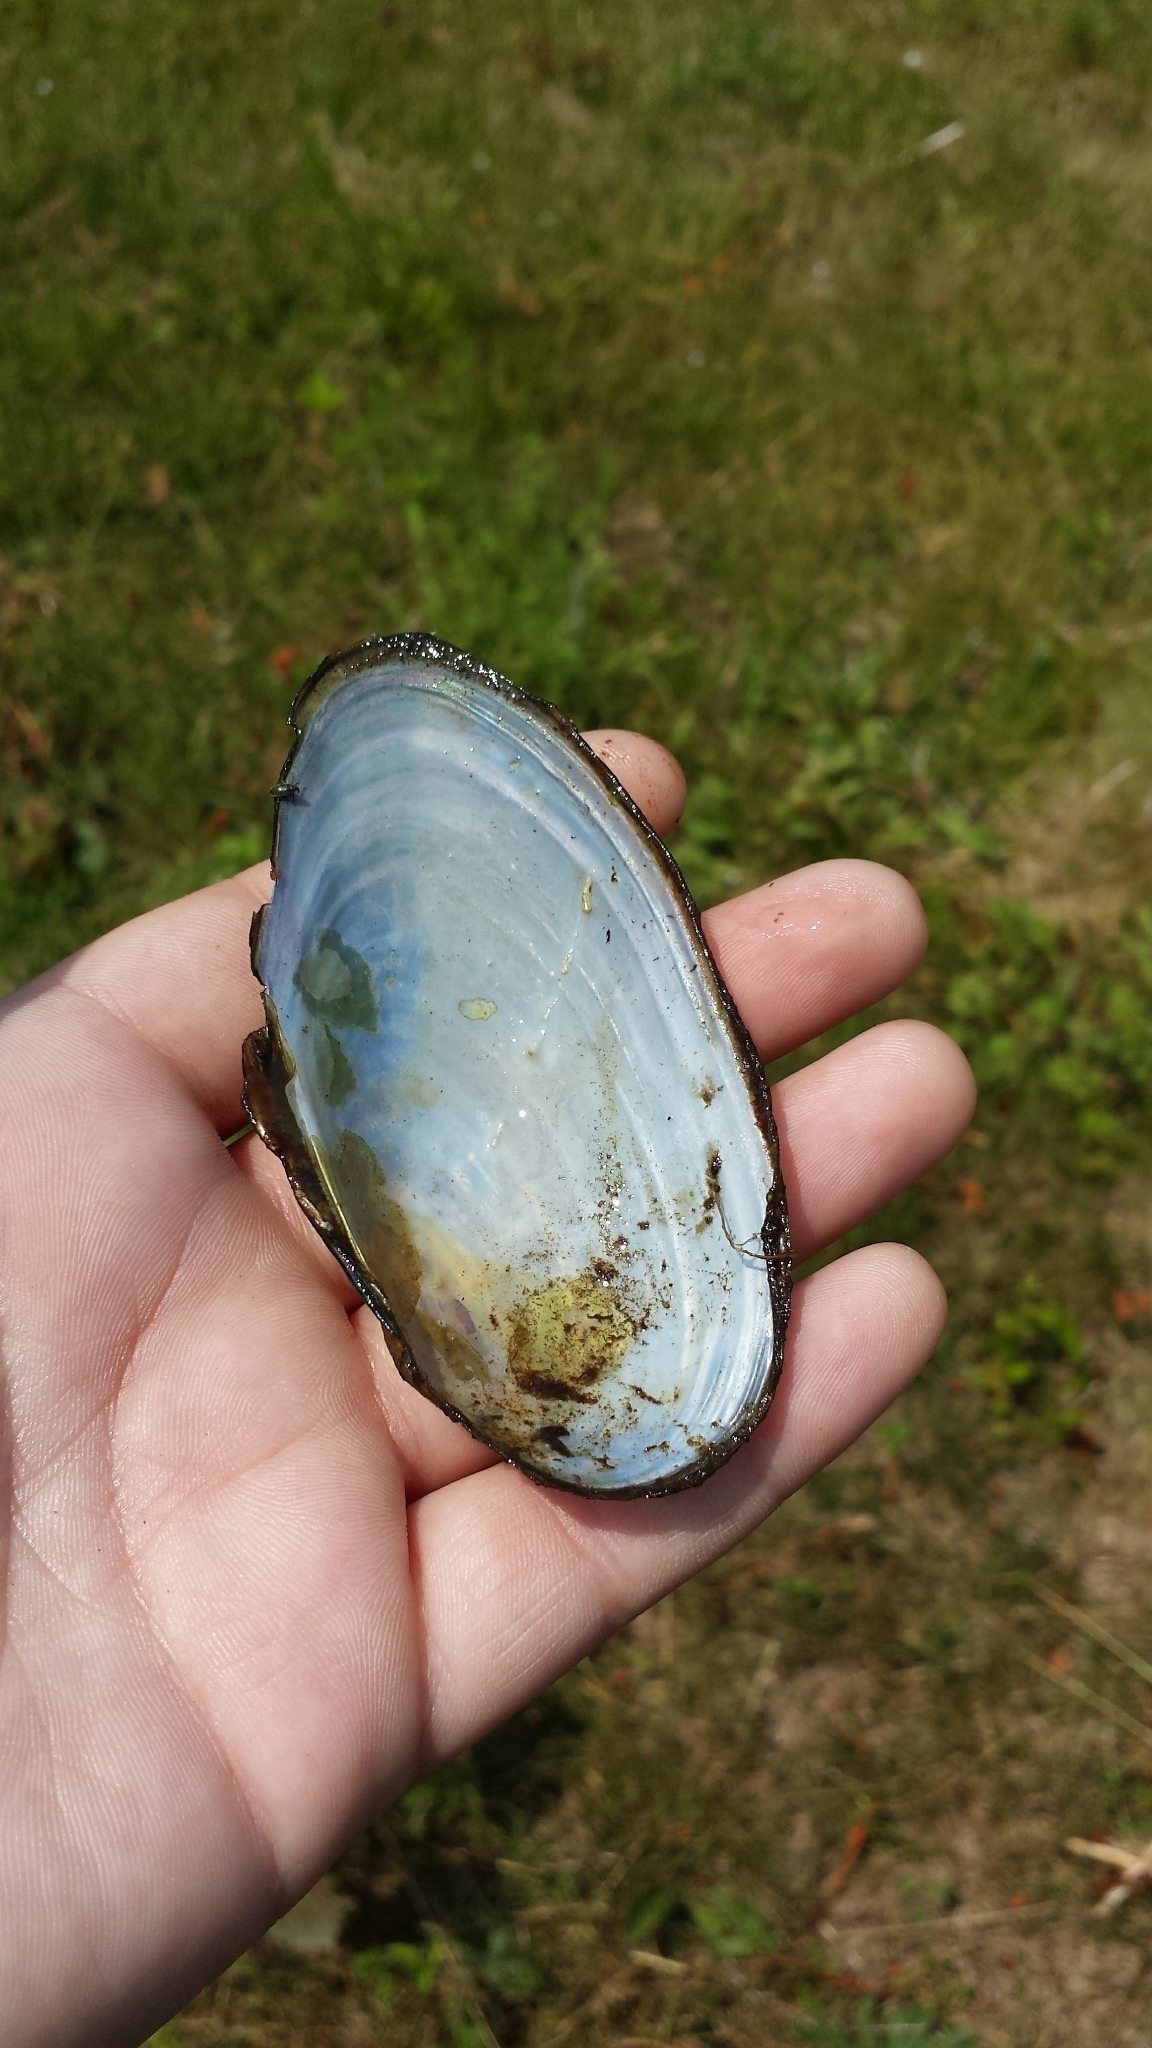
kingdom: Animalia
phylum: Mollusca
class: Bivalvia
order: Unionida
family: Unionidae
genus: Pyganodon
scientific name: Pyganodon cataracta
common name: Eastern floater
